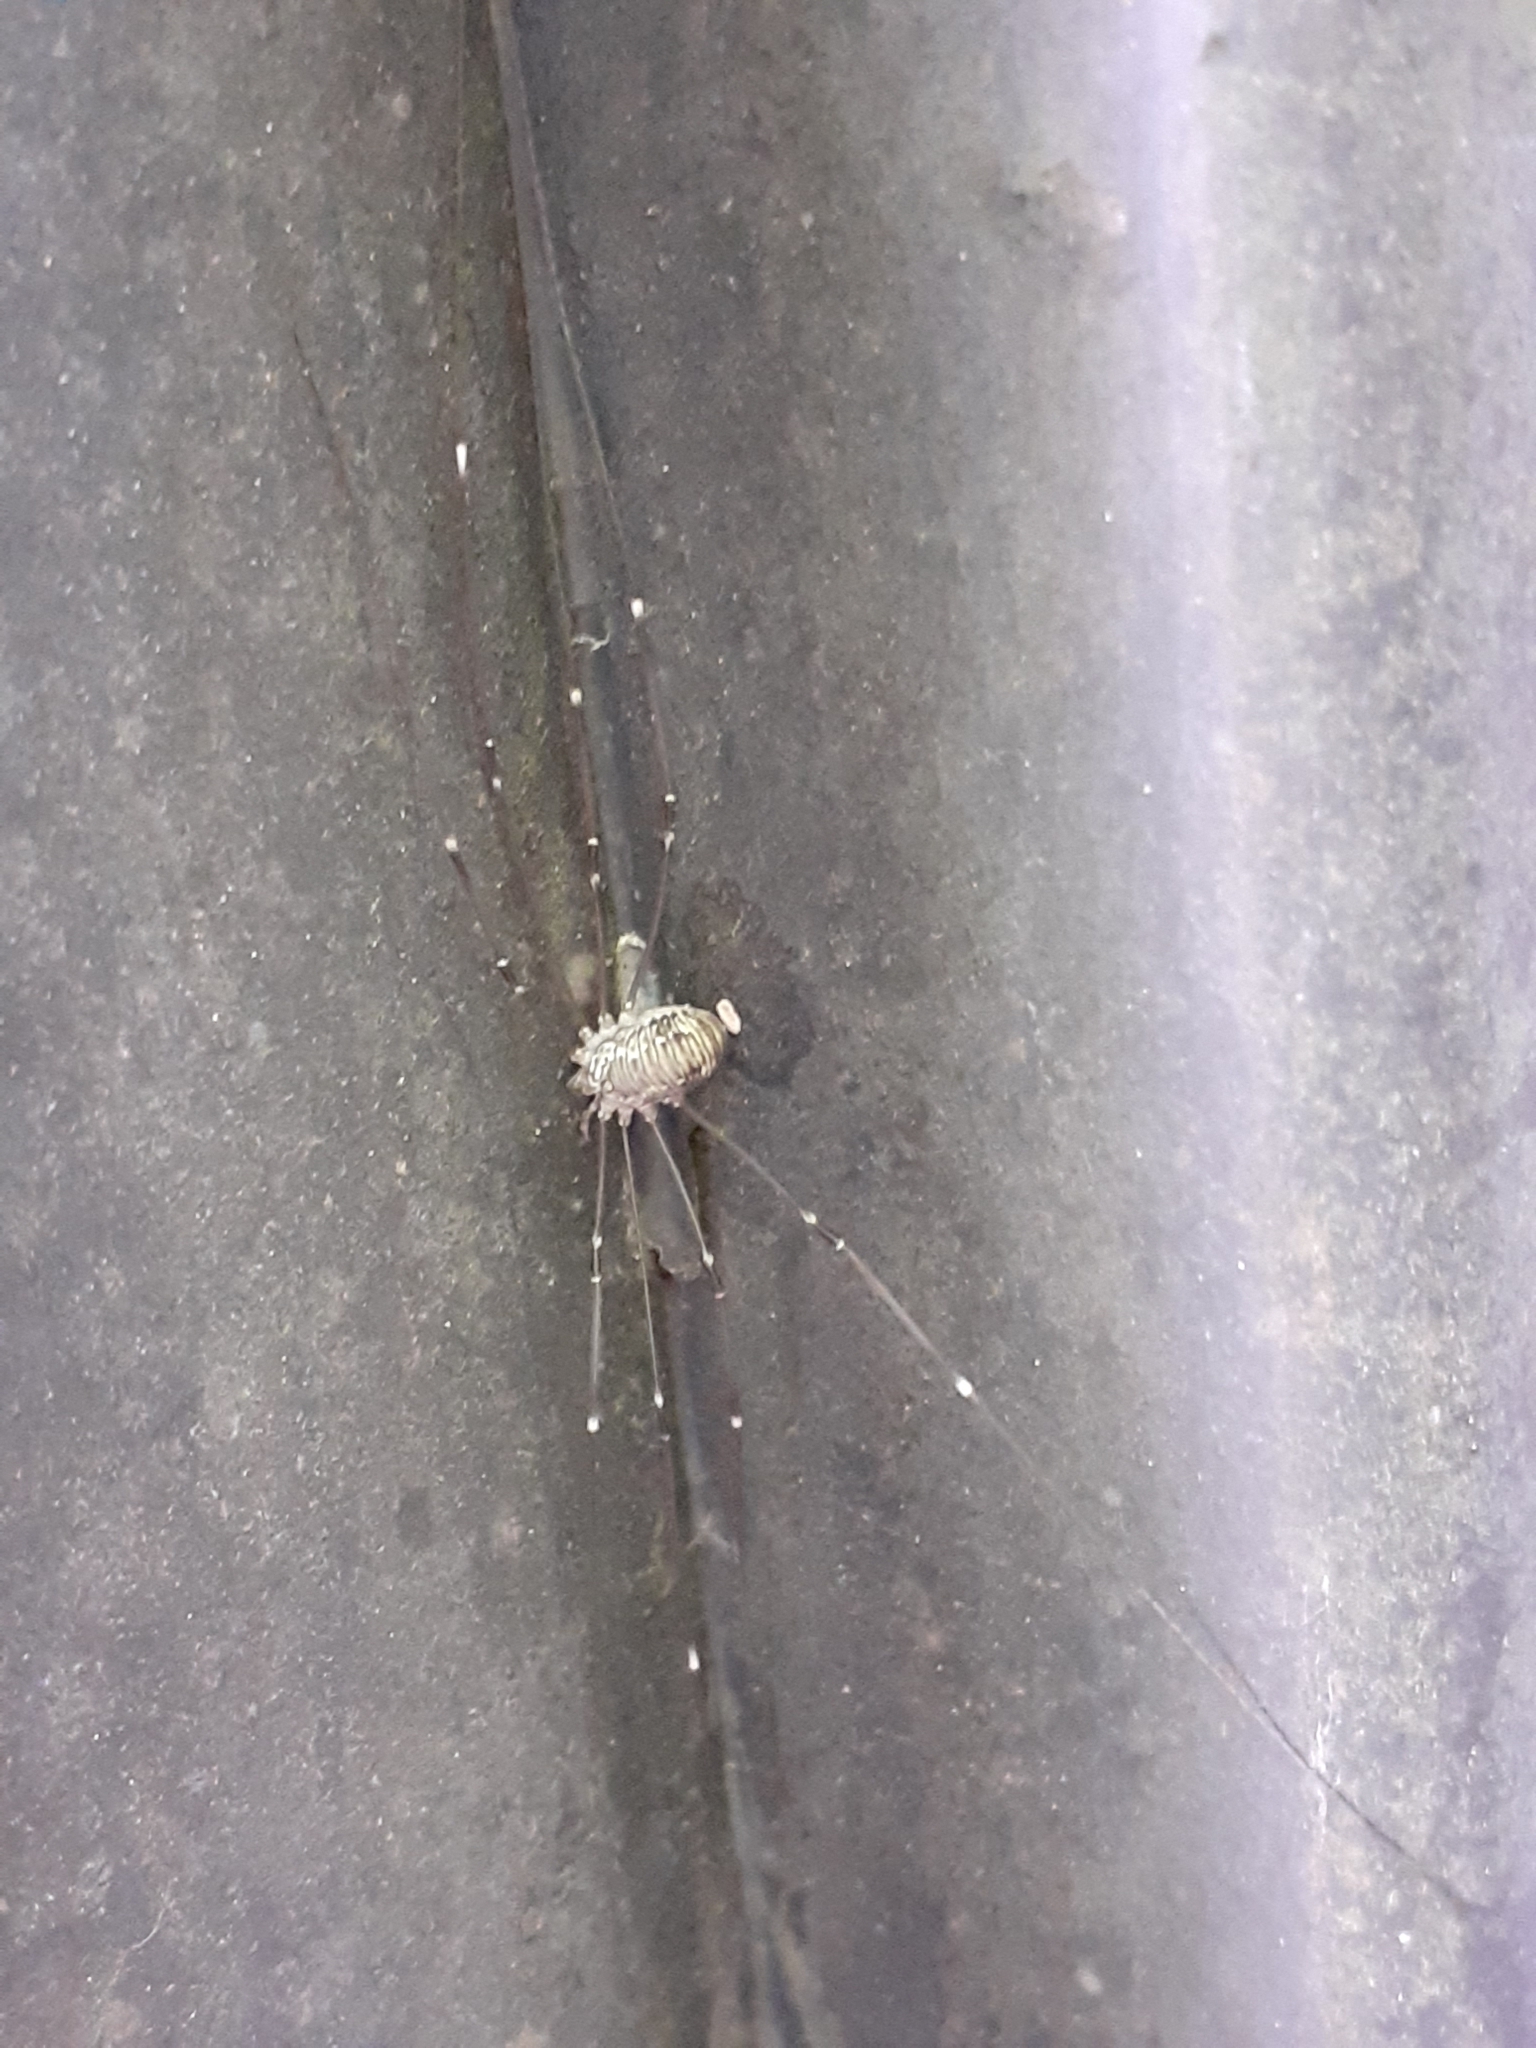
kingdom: Animalia
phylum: Arthropoda
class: Arachnida
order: Opiliones
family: Sclerosomatidae
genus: Leiobunum
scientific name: Leiobunum limbatum
